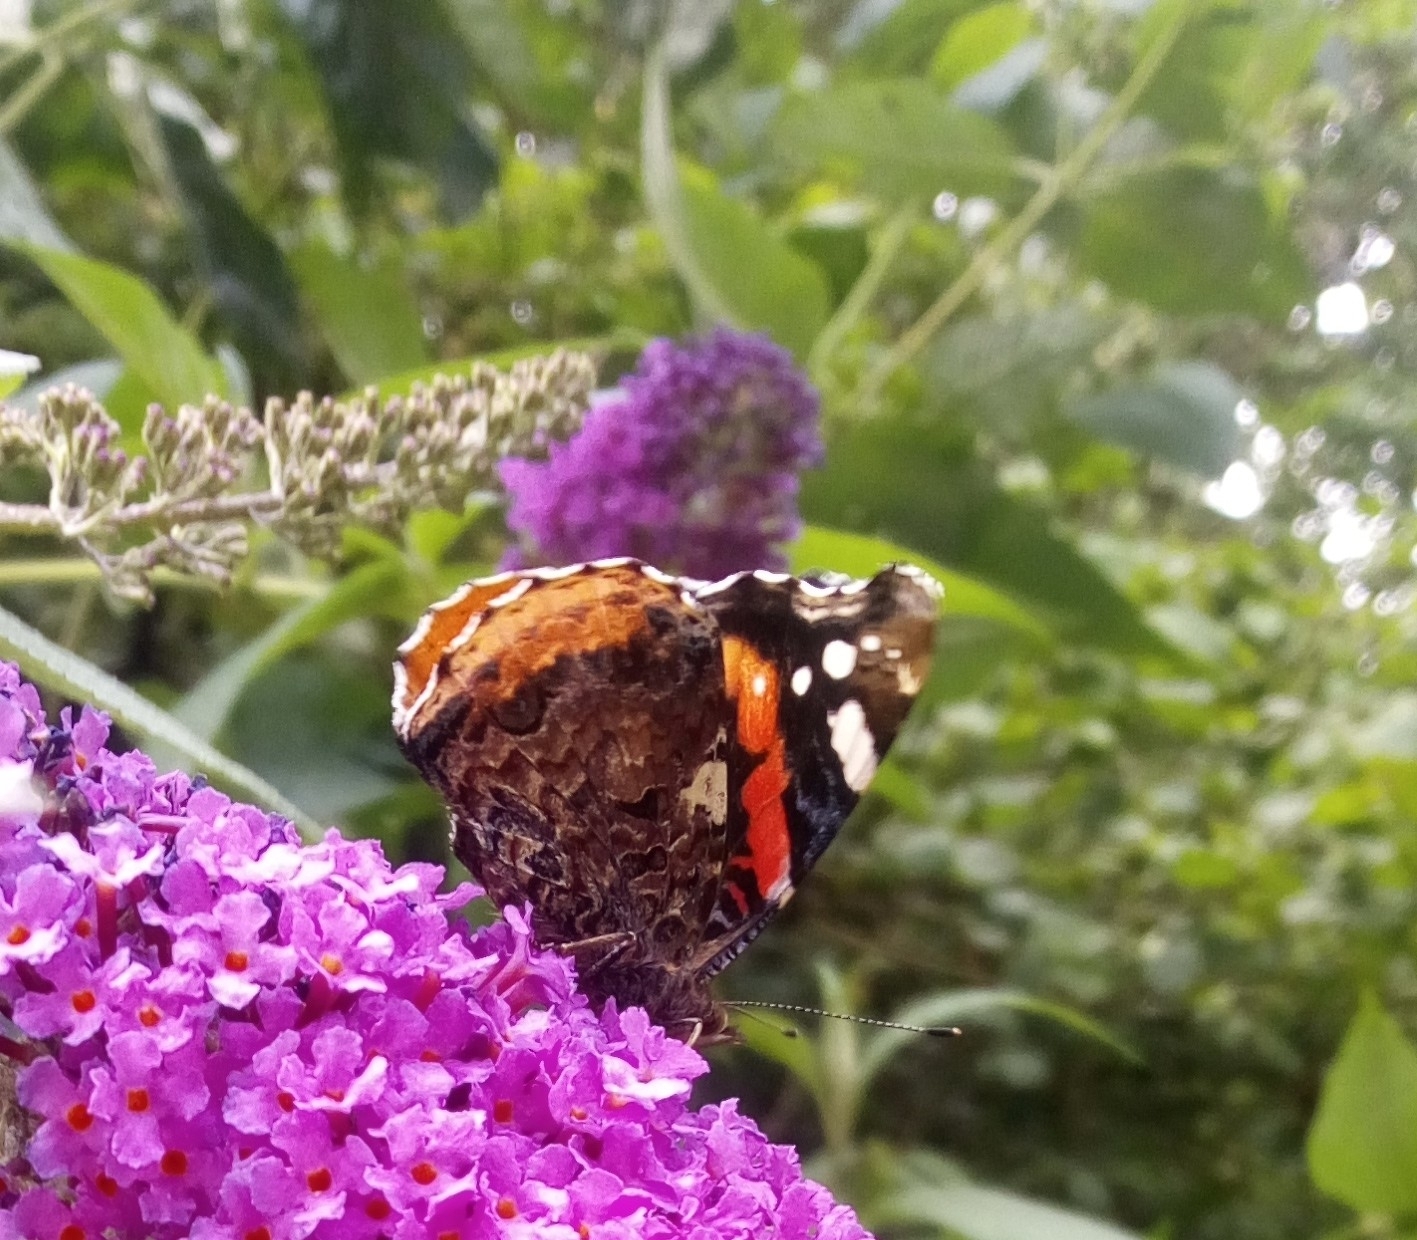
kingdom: Animalia
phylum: Arthropoda
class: Insecta
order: Lepidoptera
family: Nymphalidae
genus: Vanessa
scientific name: Vanessa atalanta
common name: Red admiral
